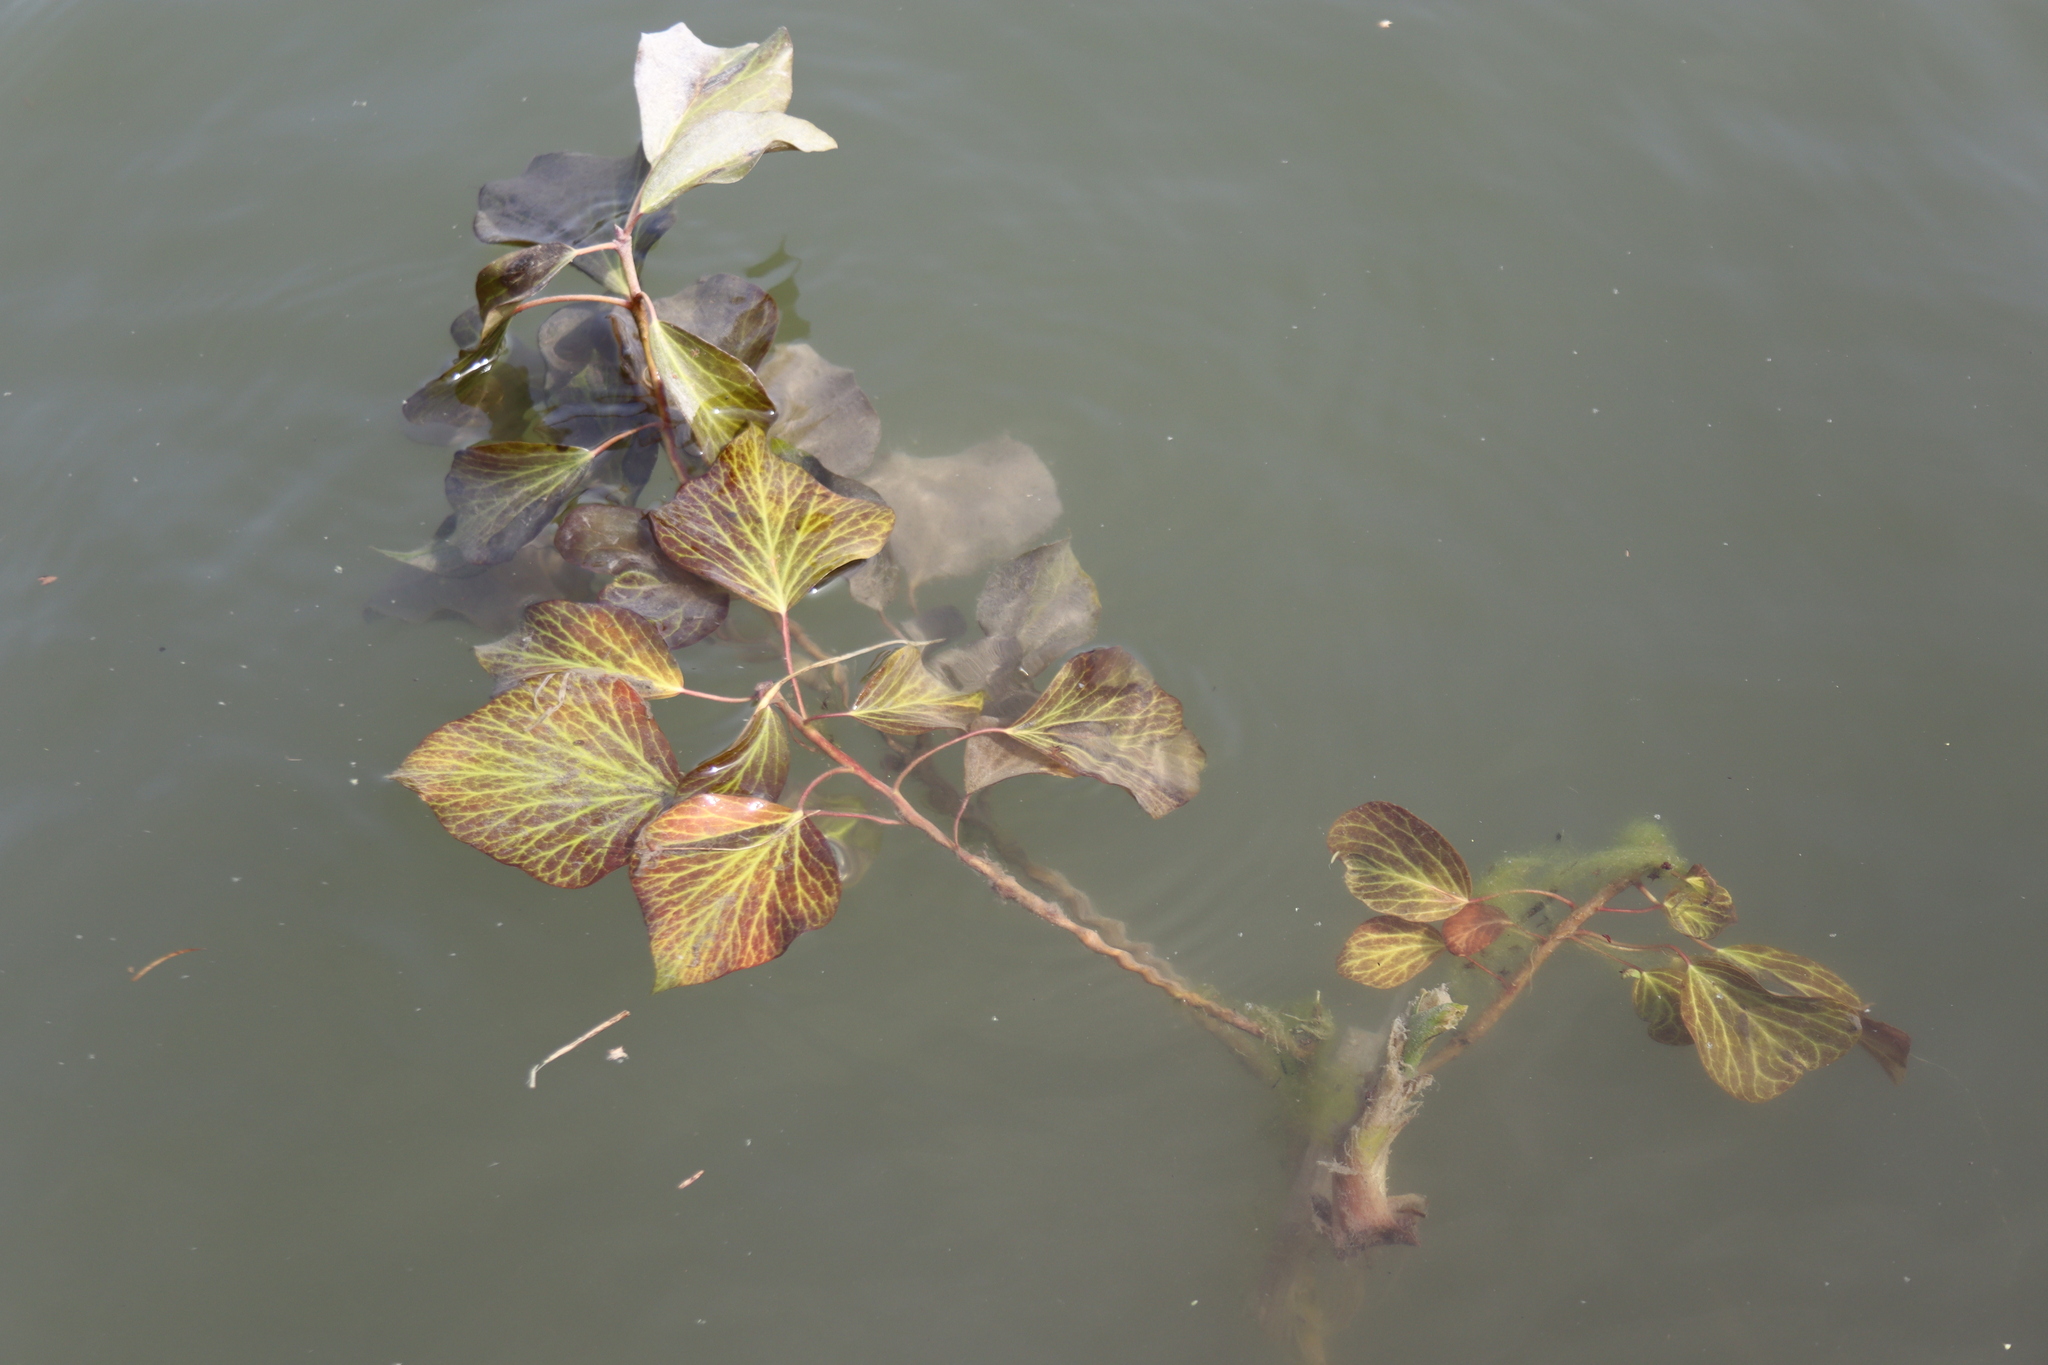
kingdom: Plantae
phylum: Tracheophyta
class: Magnoliopsida
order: Apiales
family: Araliaceae
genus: Hedera
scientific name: Hedera
